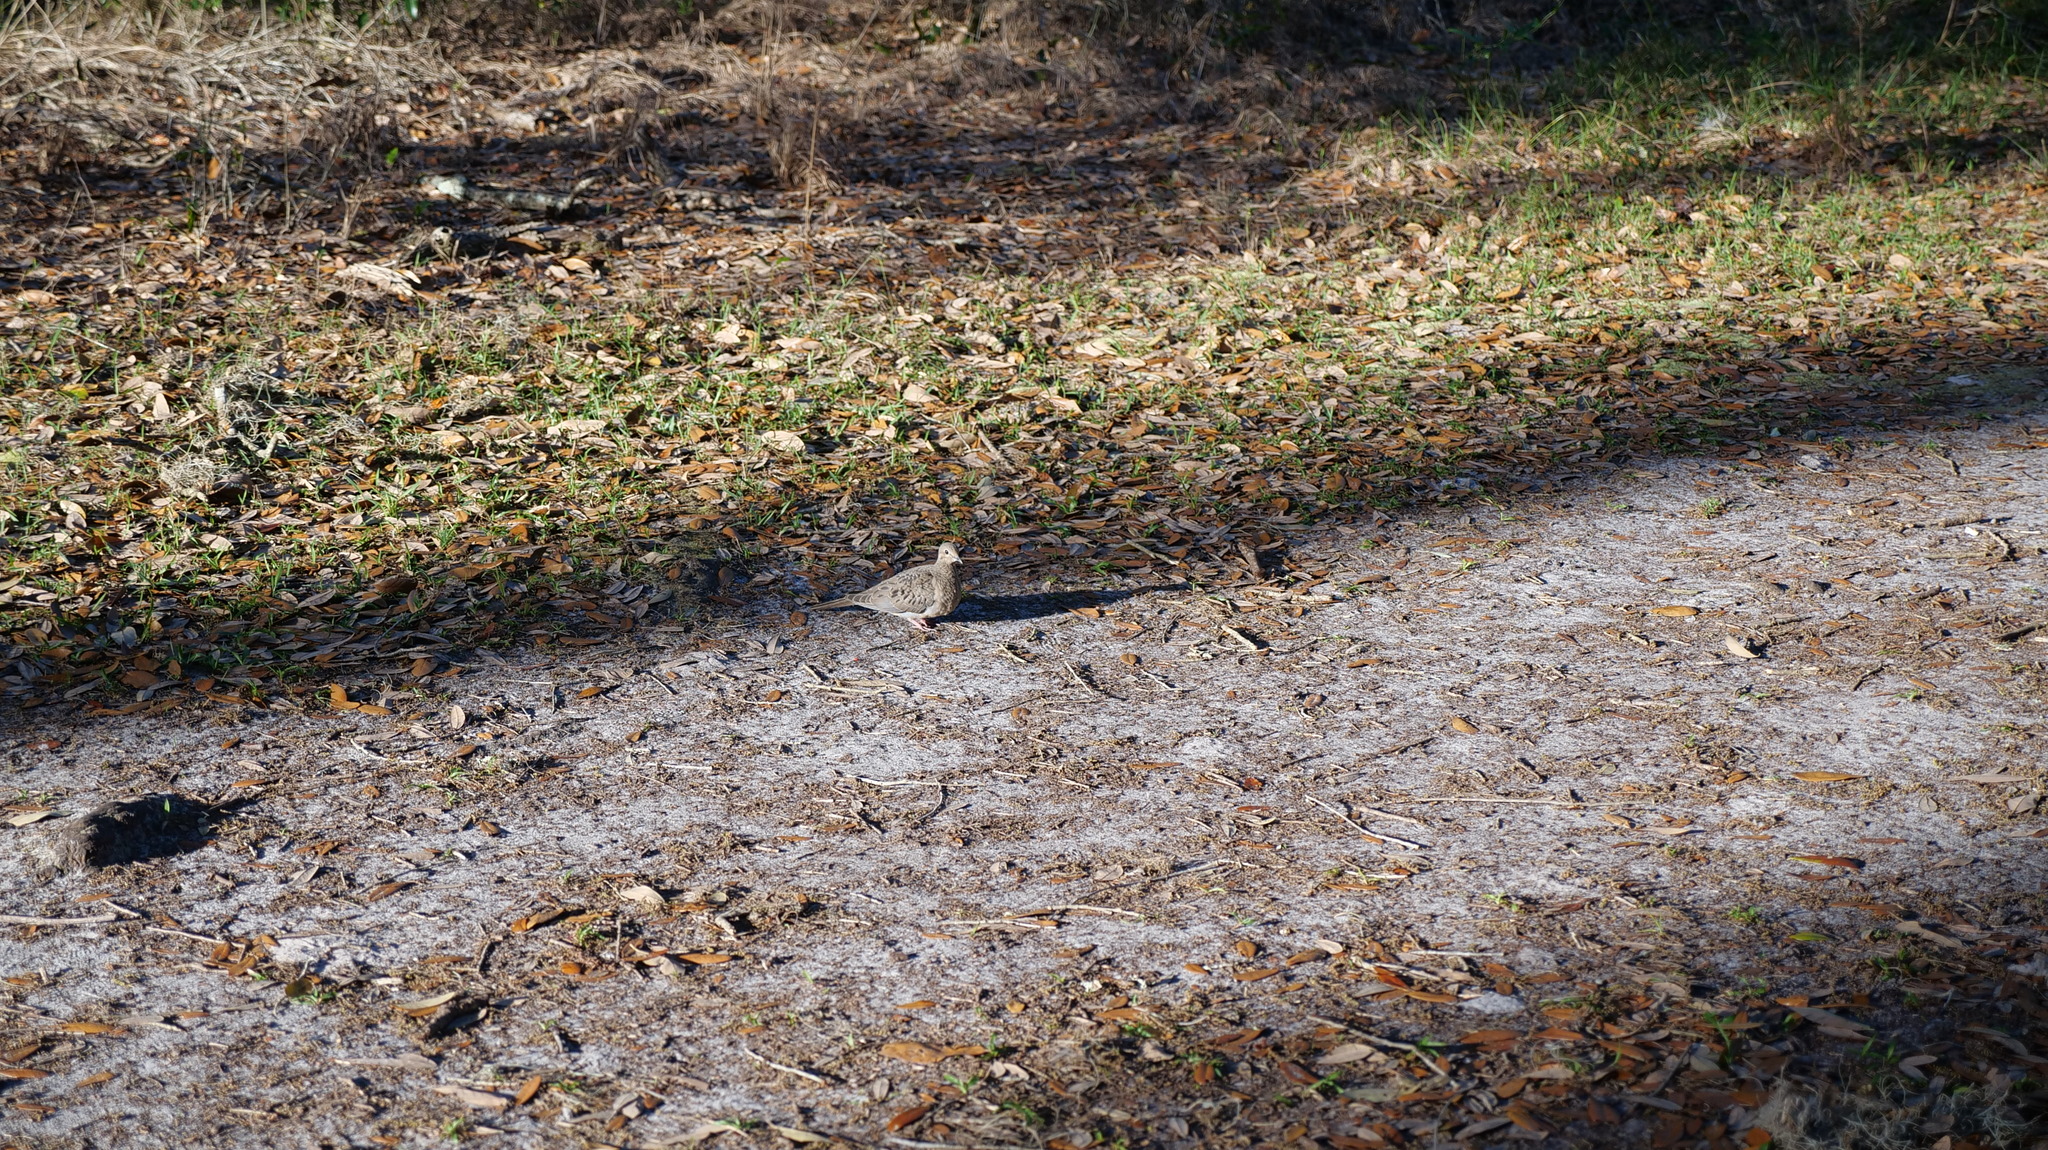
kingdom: Animalia
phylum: Chordata
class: Aves
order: Columbiformes
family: Columbidae
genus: Zenaida
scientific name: Zenaida macroura
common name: Mourning dove
